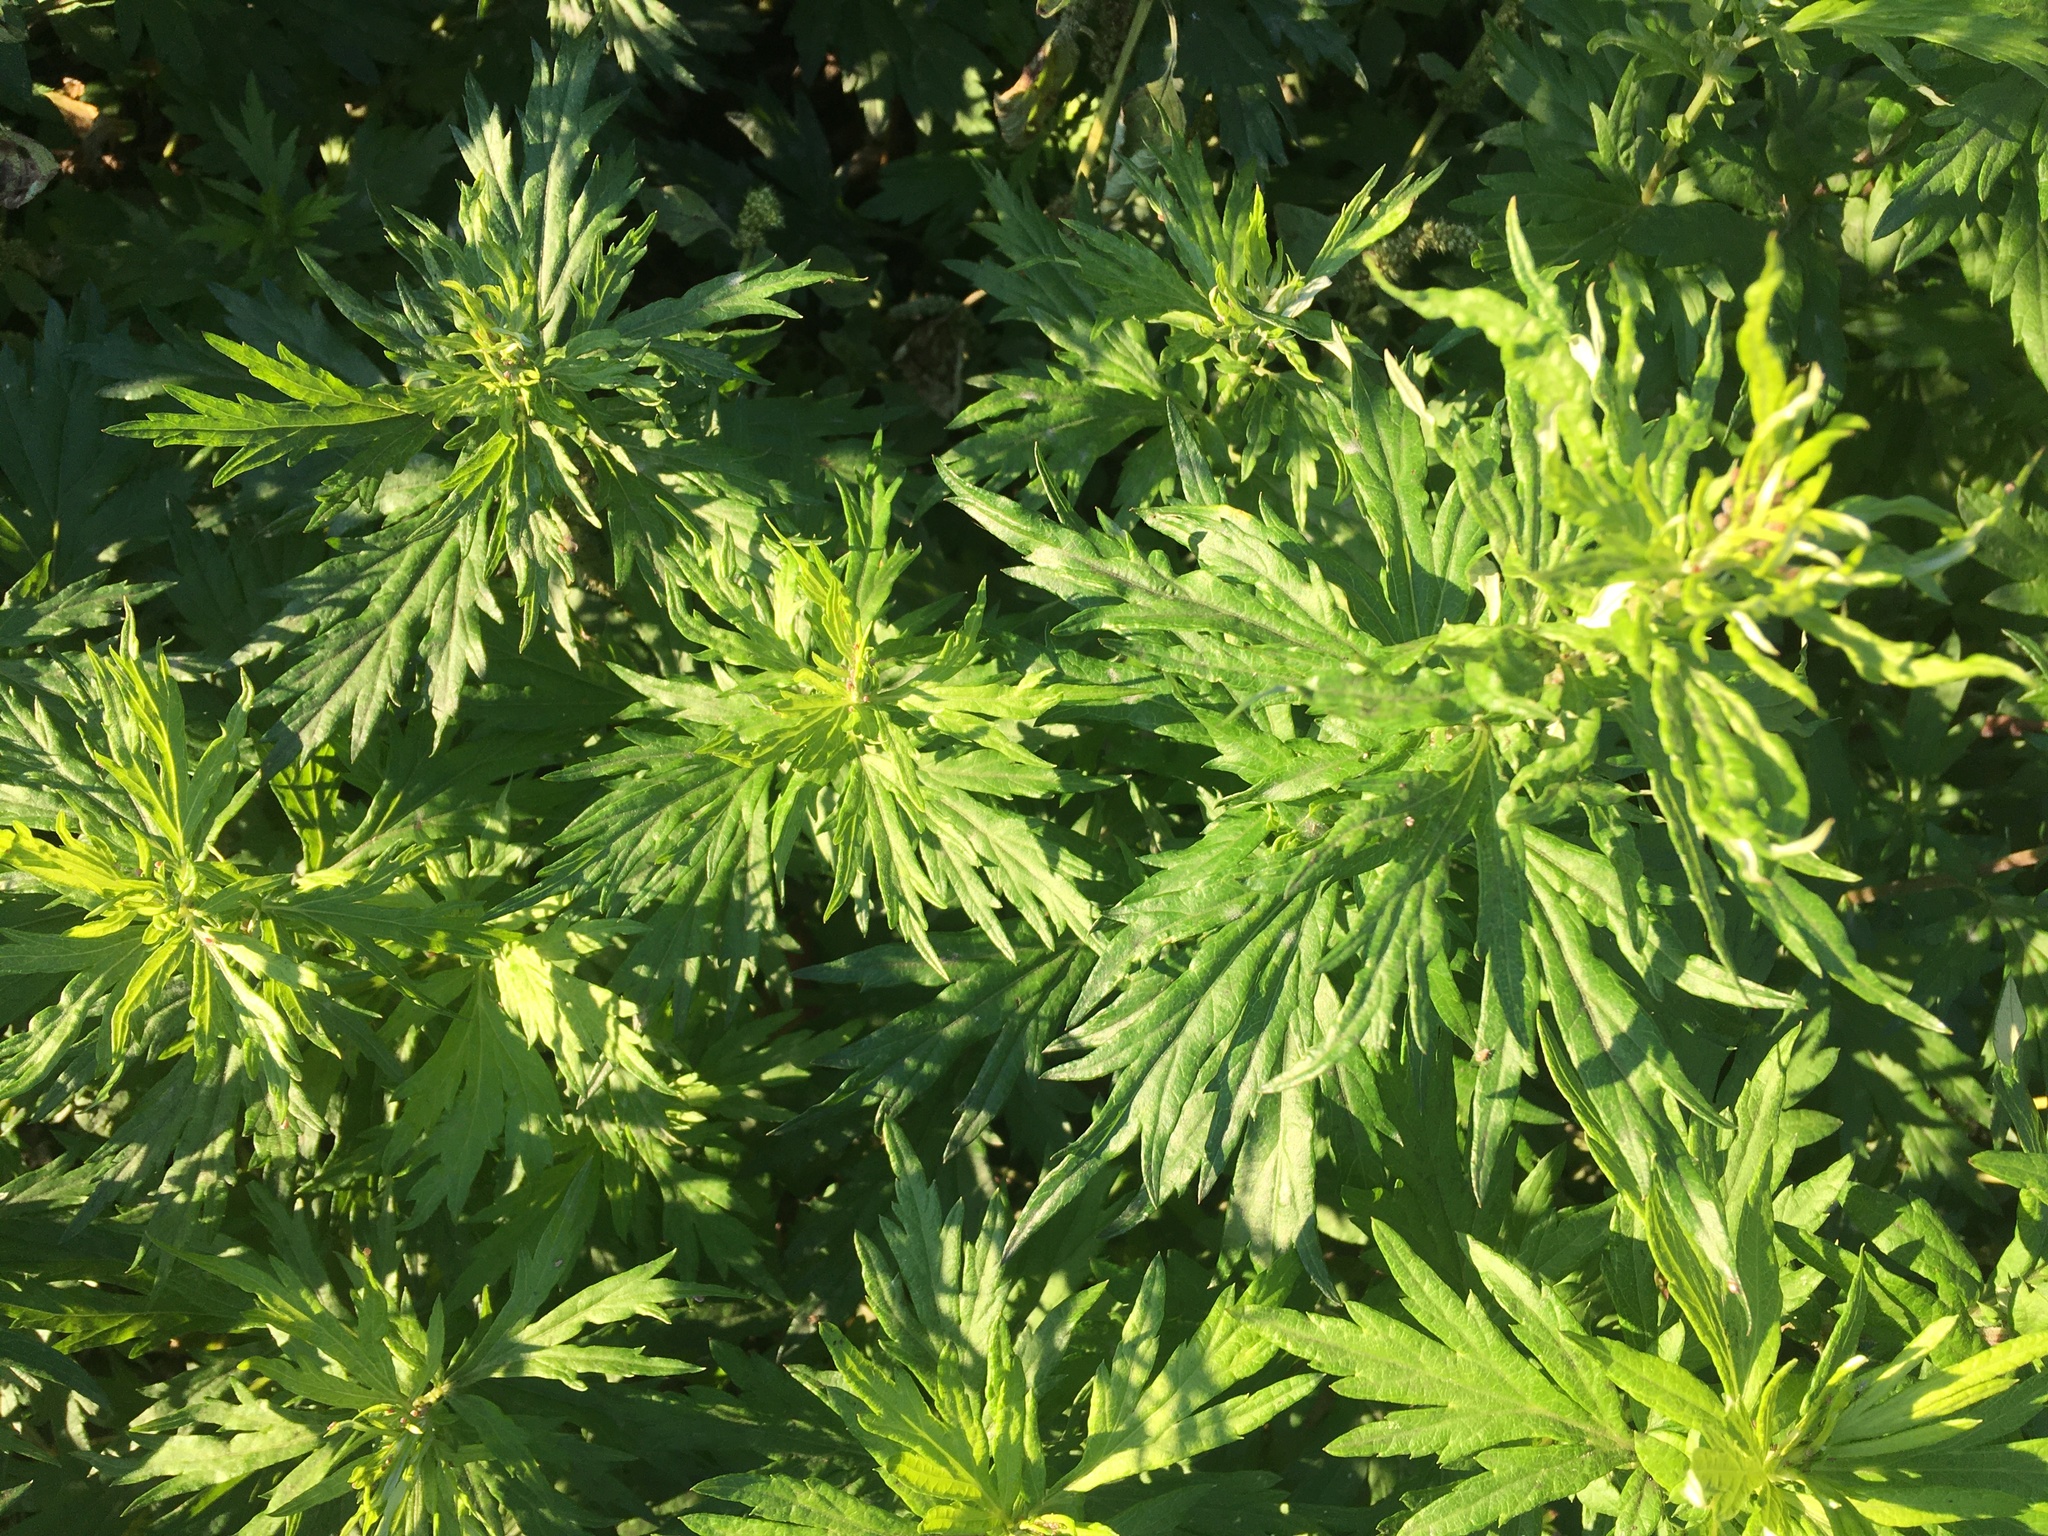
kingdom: Plantae
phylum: Tracheophyta
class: Magnoliopsida
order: Asterales
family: Asteraceae
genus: Artemisia
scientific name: Artemisia vulgaris
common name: Mugwort
